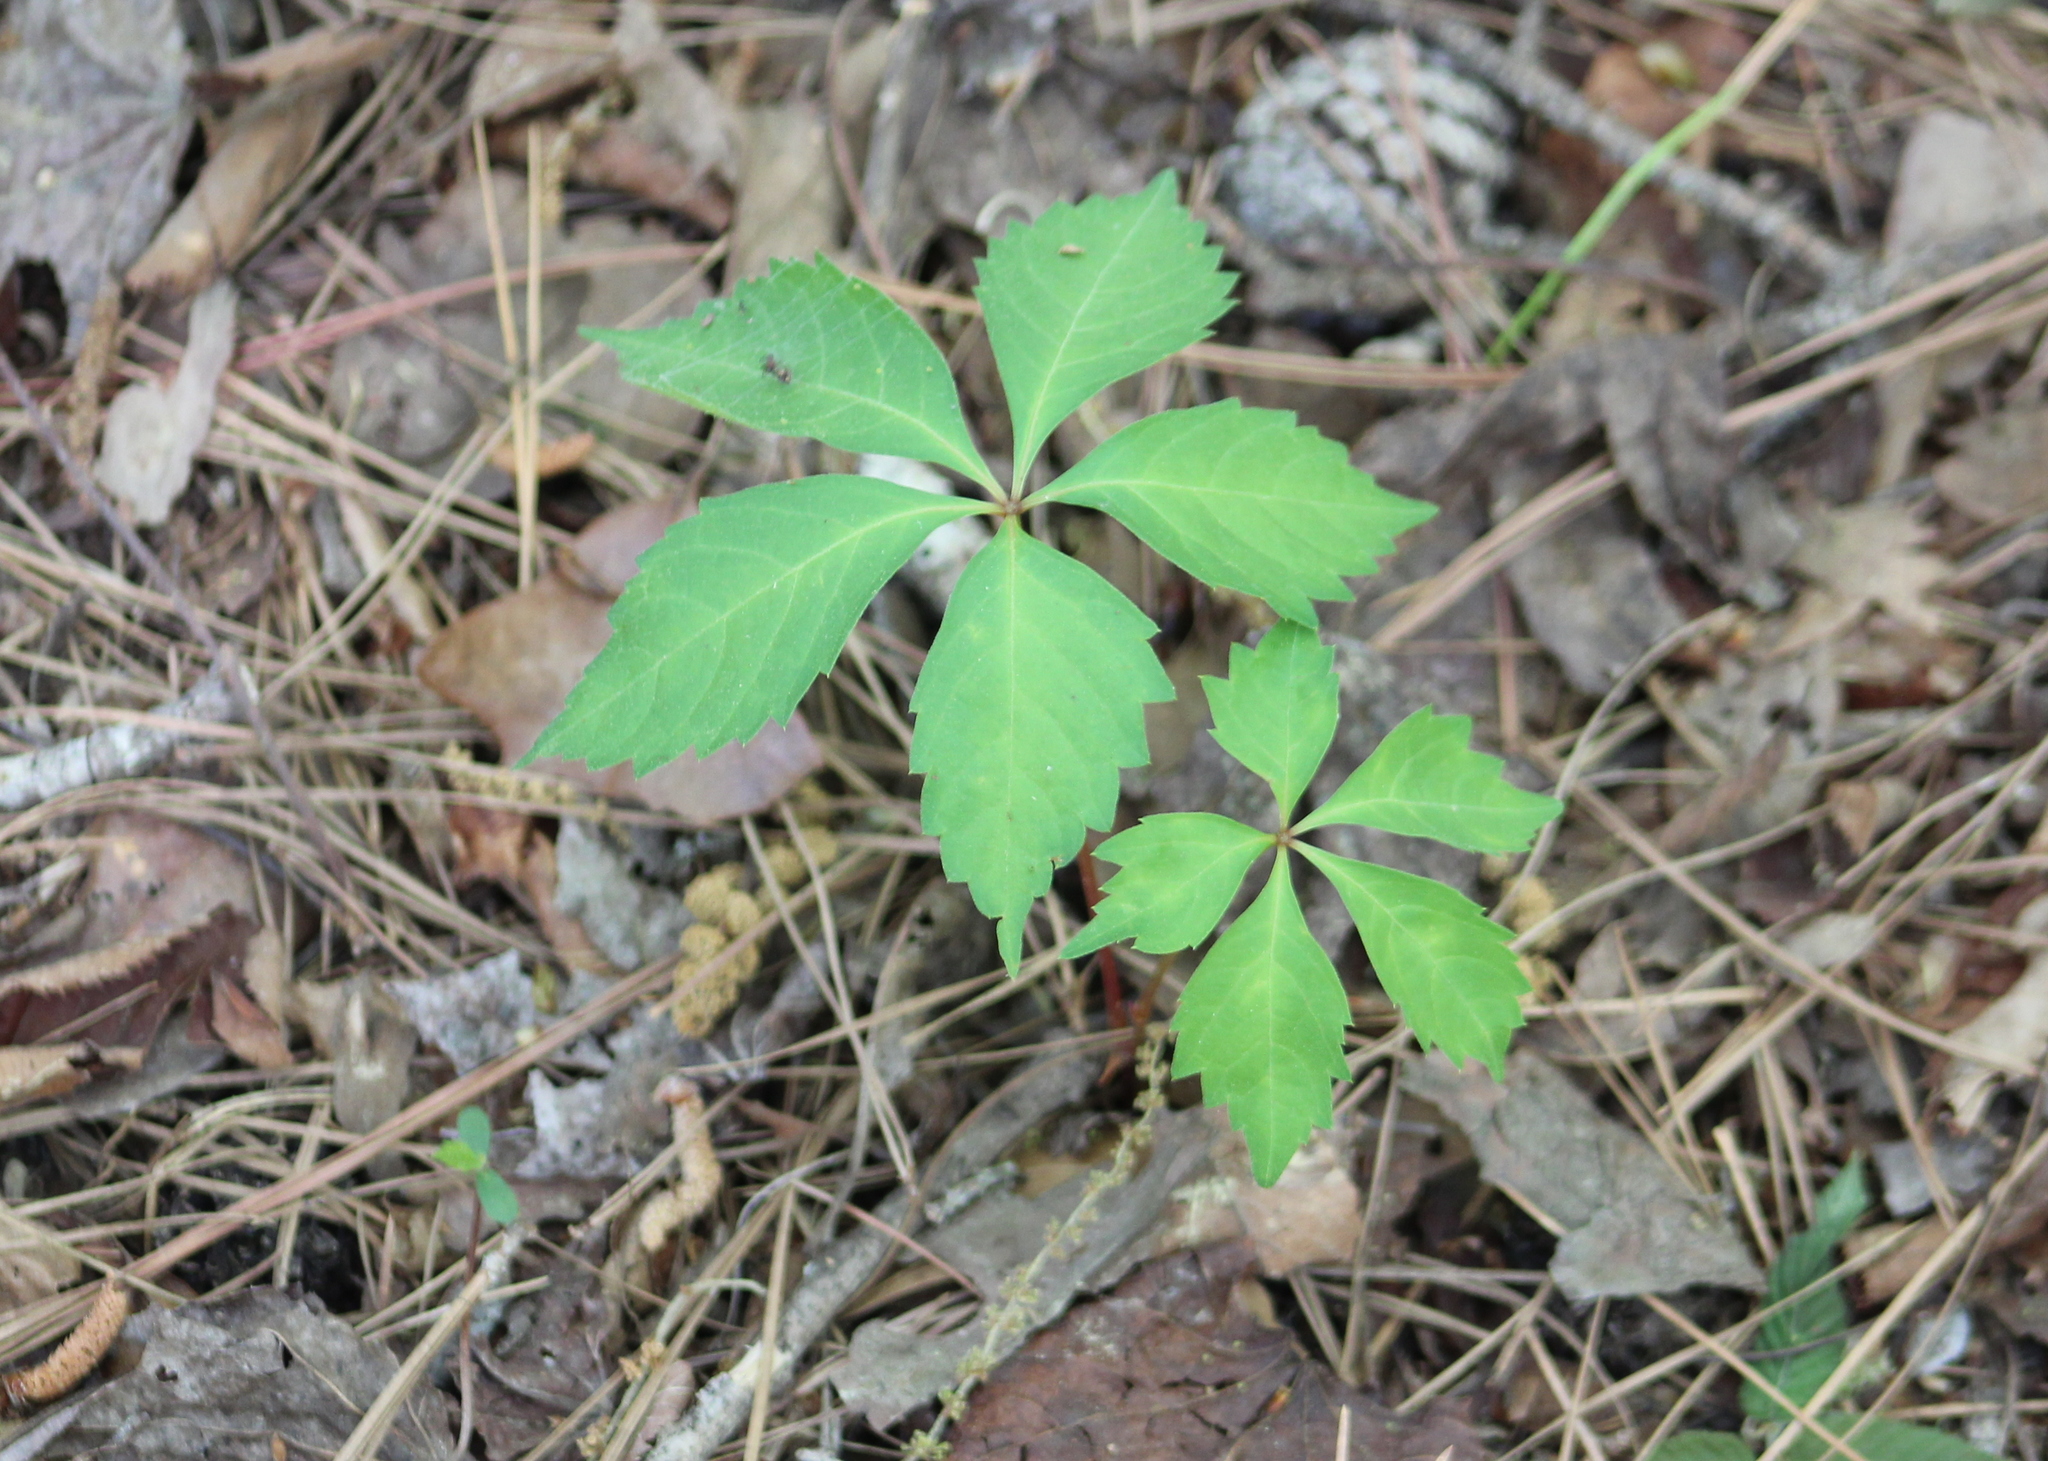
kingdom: Plantae
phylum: Tracheophyta
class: Magnoliopsida
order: Vitales
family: Vitaceae
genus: Parthenocissus
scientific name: Parthenocissus quinquefolia
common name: Virginia-creeper
